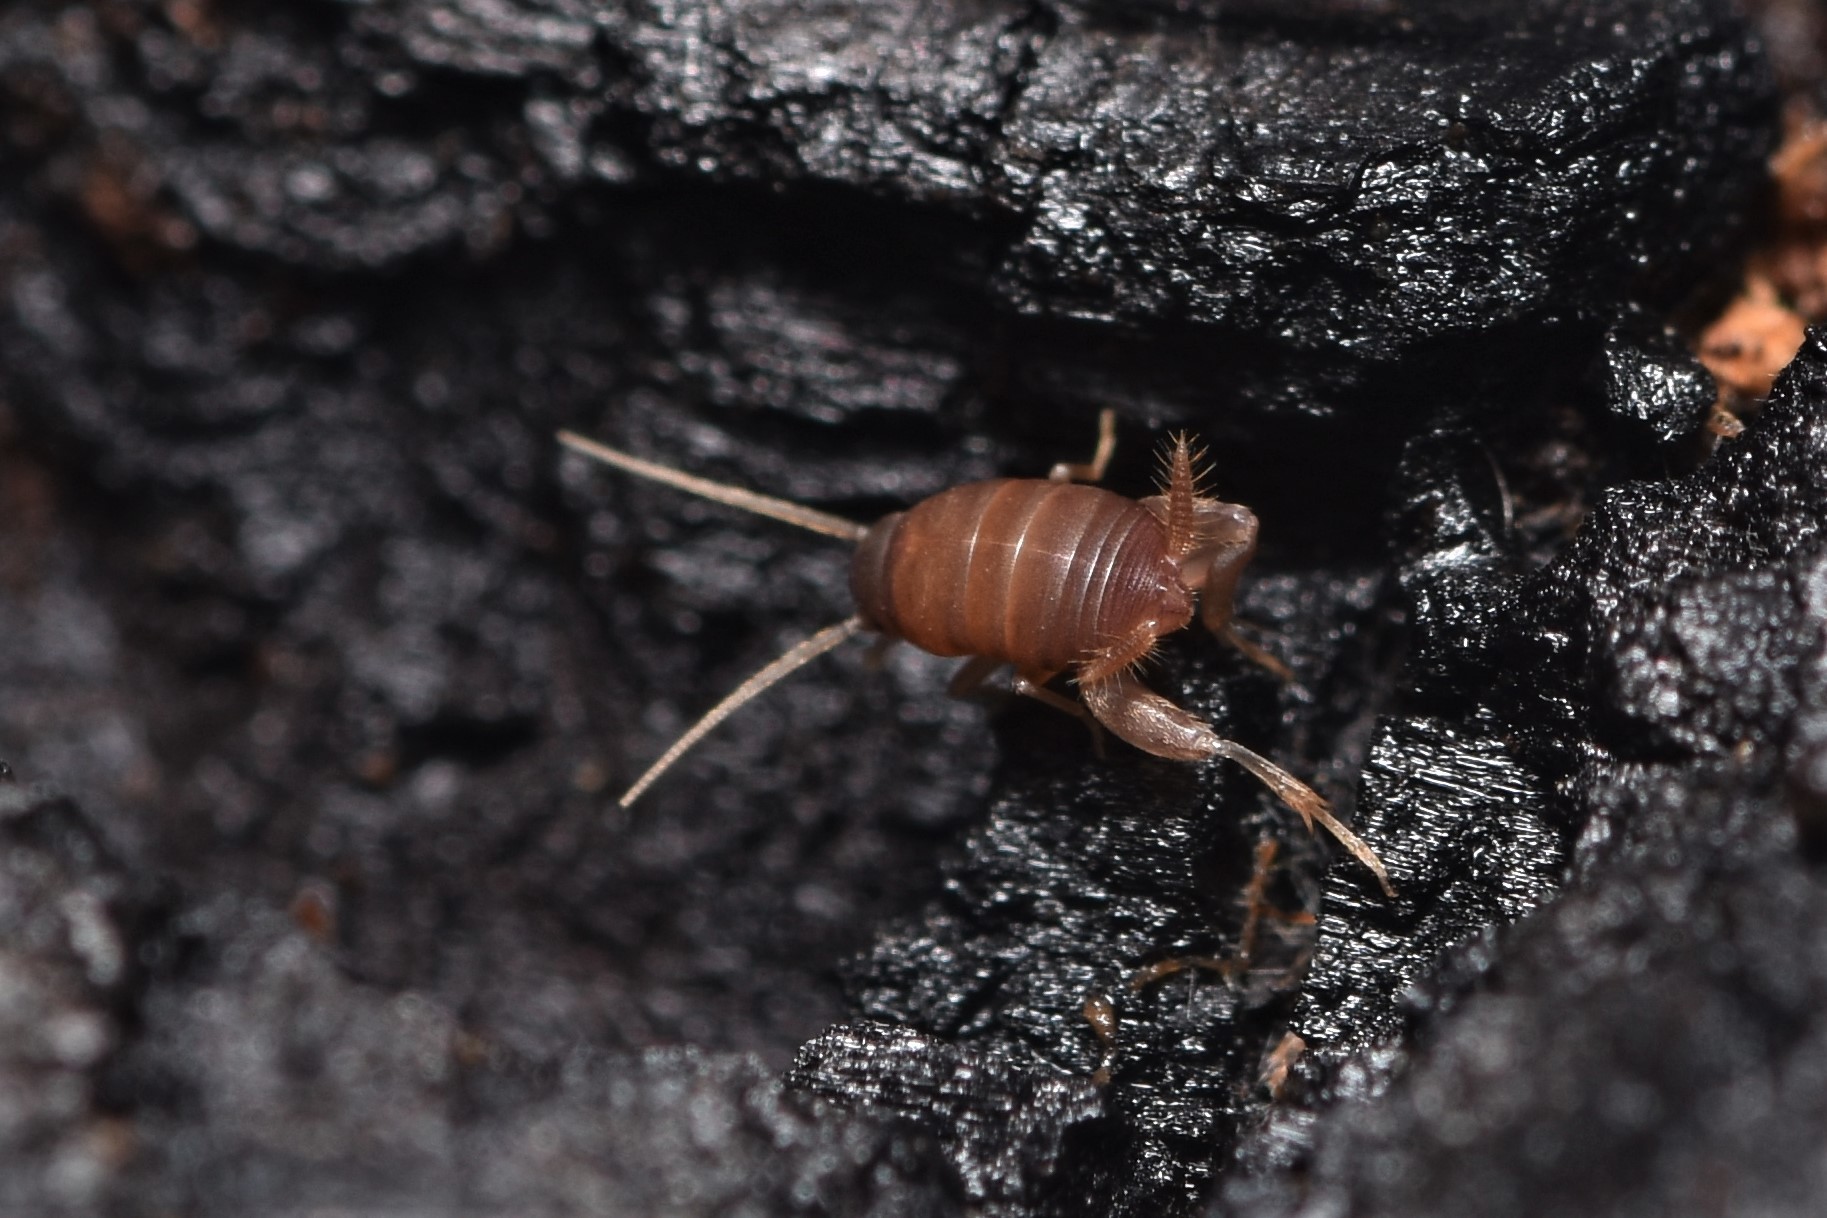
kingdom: Animalia
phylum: Arthropoda
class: Insecta
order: Orthoptera
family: Myrmecophilidae
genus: Myrmecophilus
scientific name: Myrmecophilus oregonensis
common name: Oregon ant cricket
